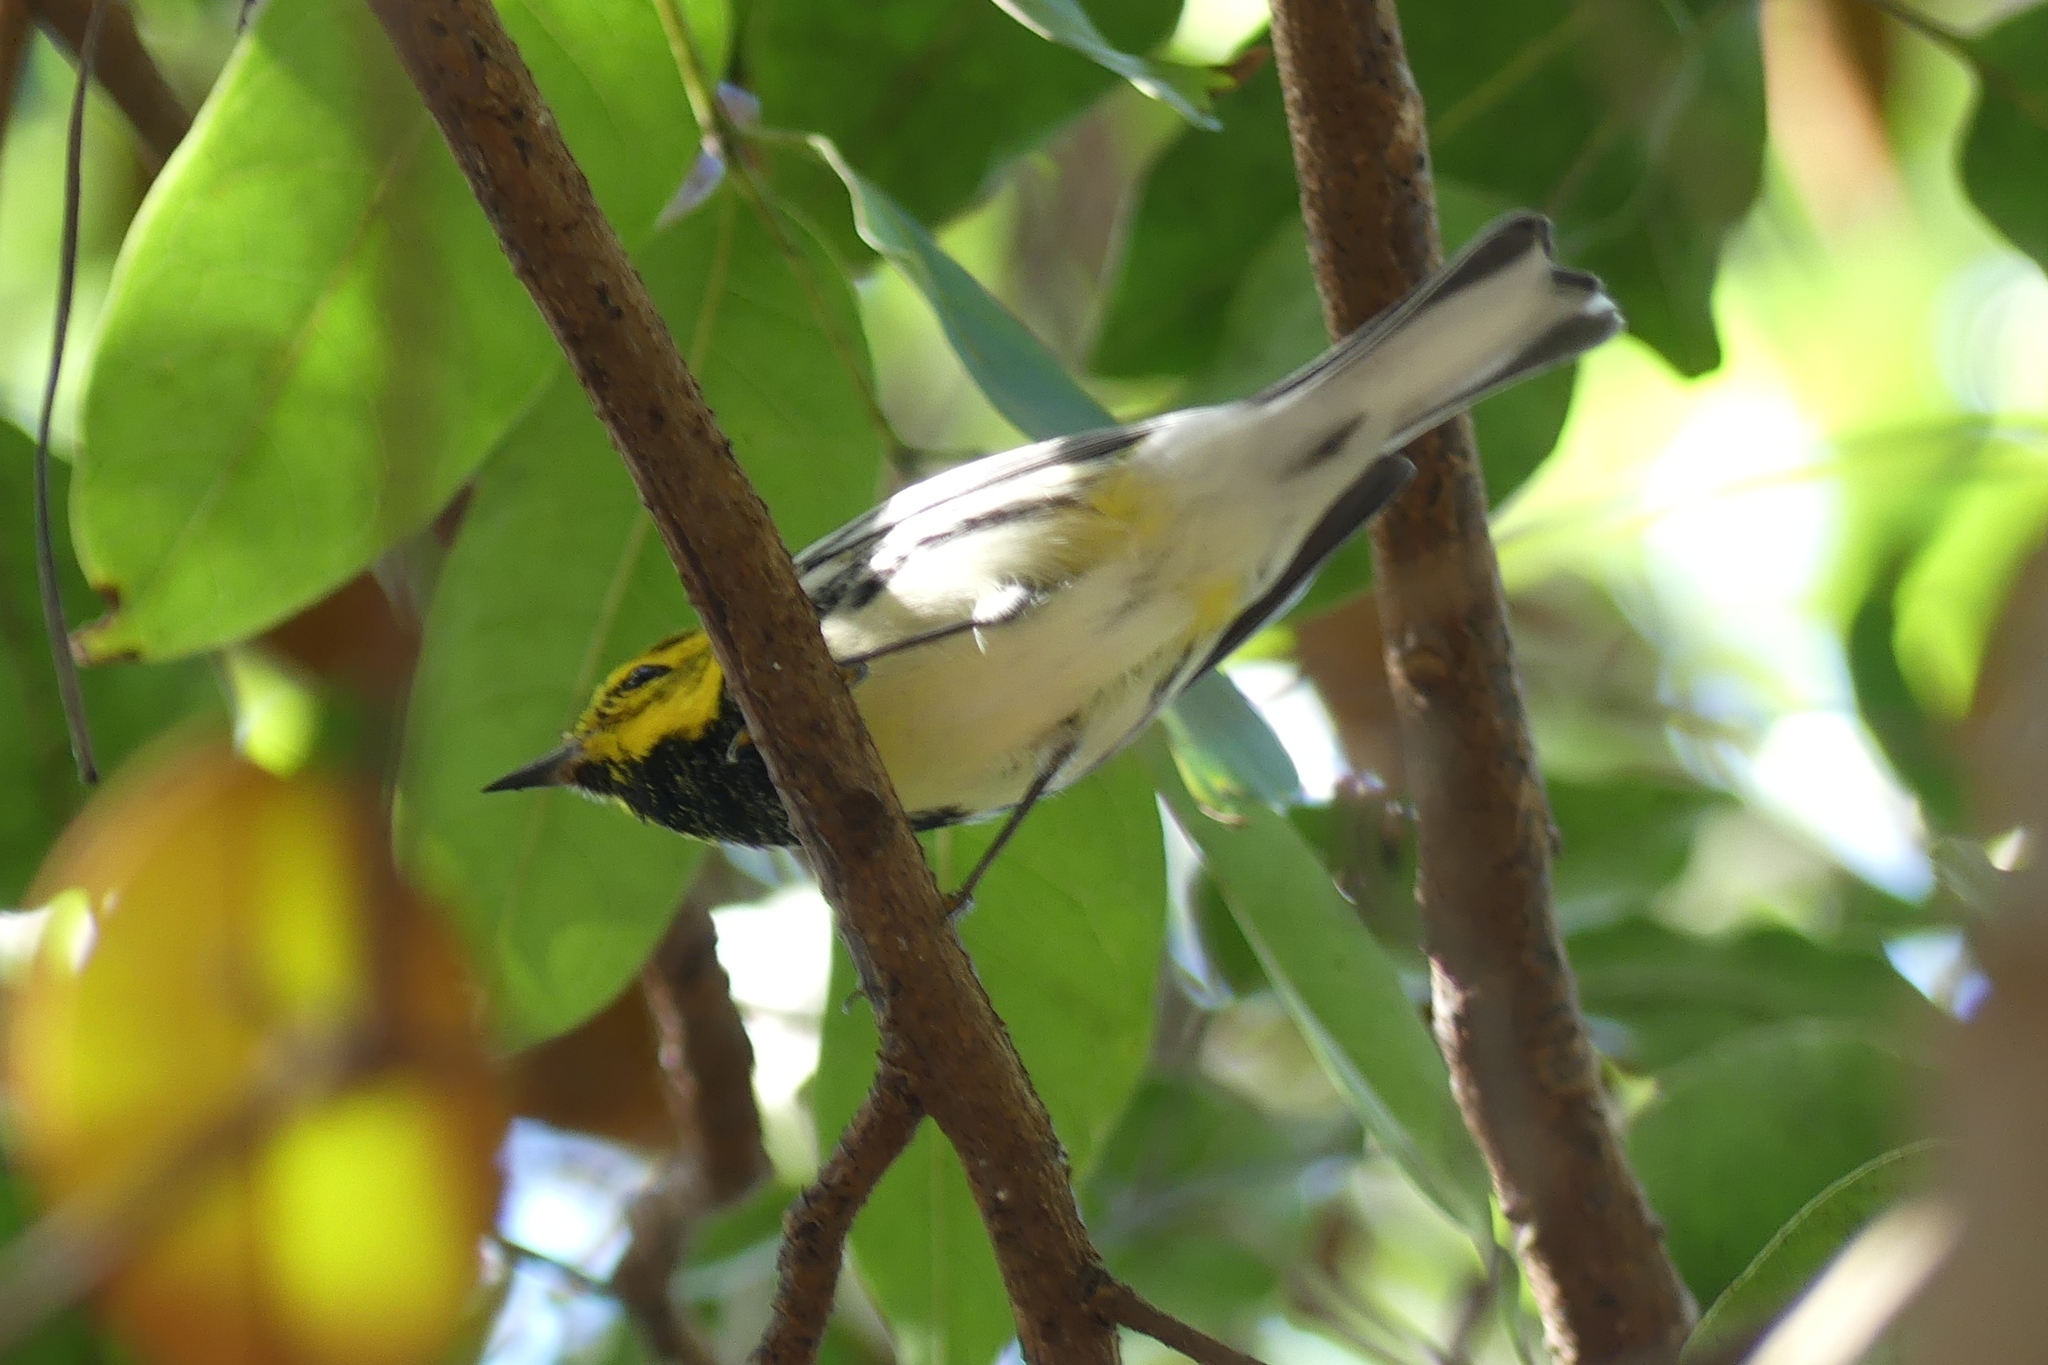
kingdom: Animalia
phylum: Chordata
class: Aves
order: Passeriformes
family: Parulidae
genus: Setophaga
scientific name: Setophaga virens
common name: Black-throated green warbler
